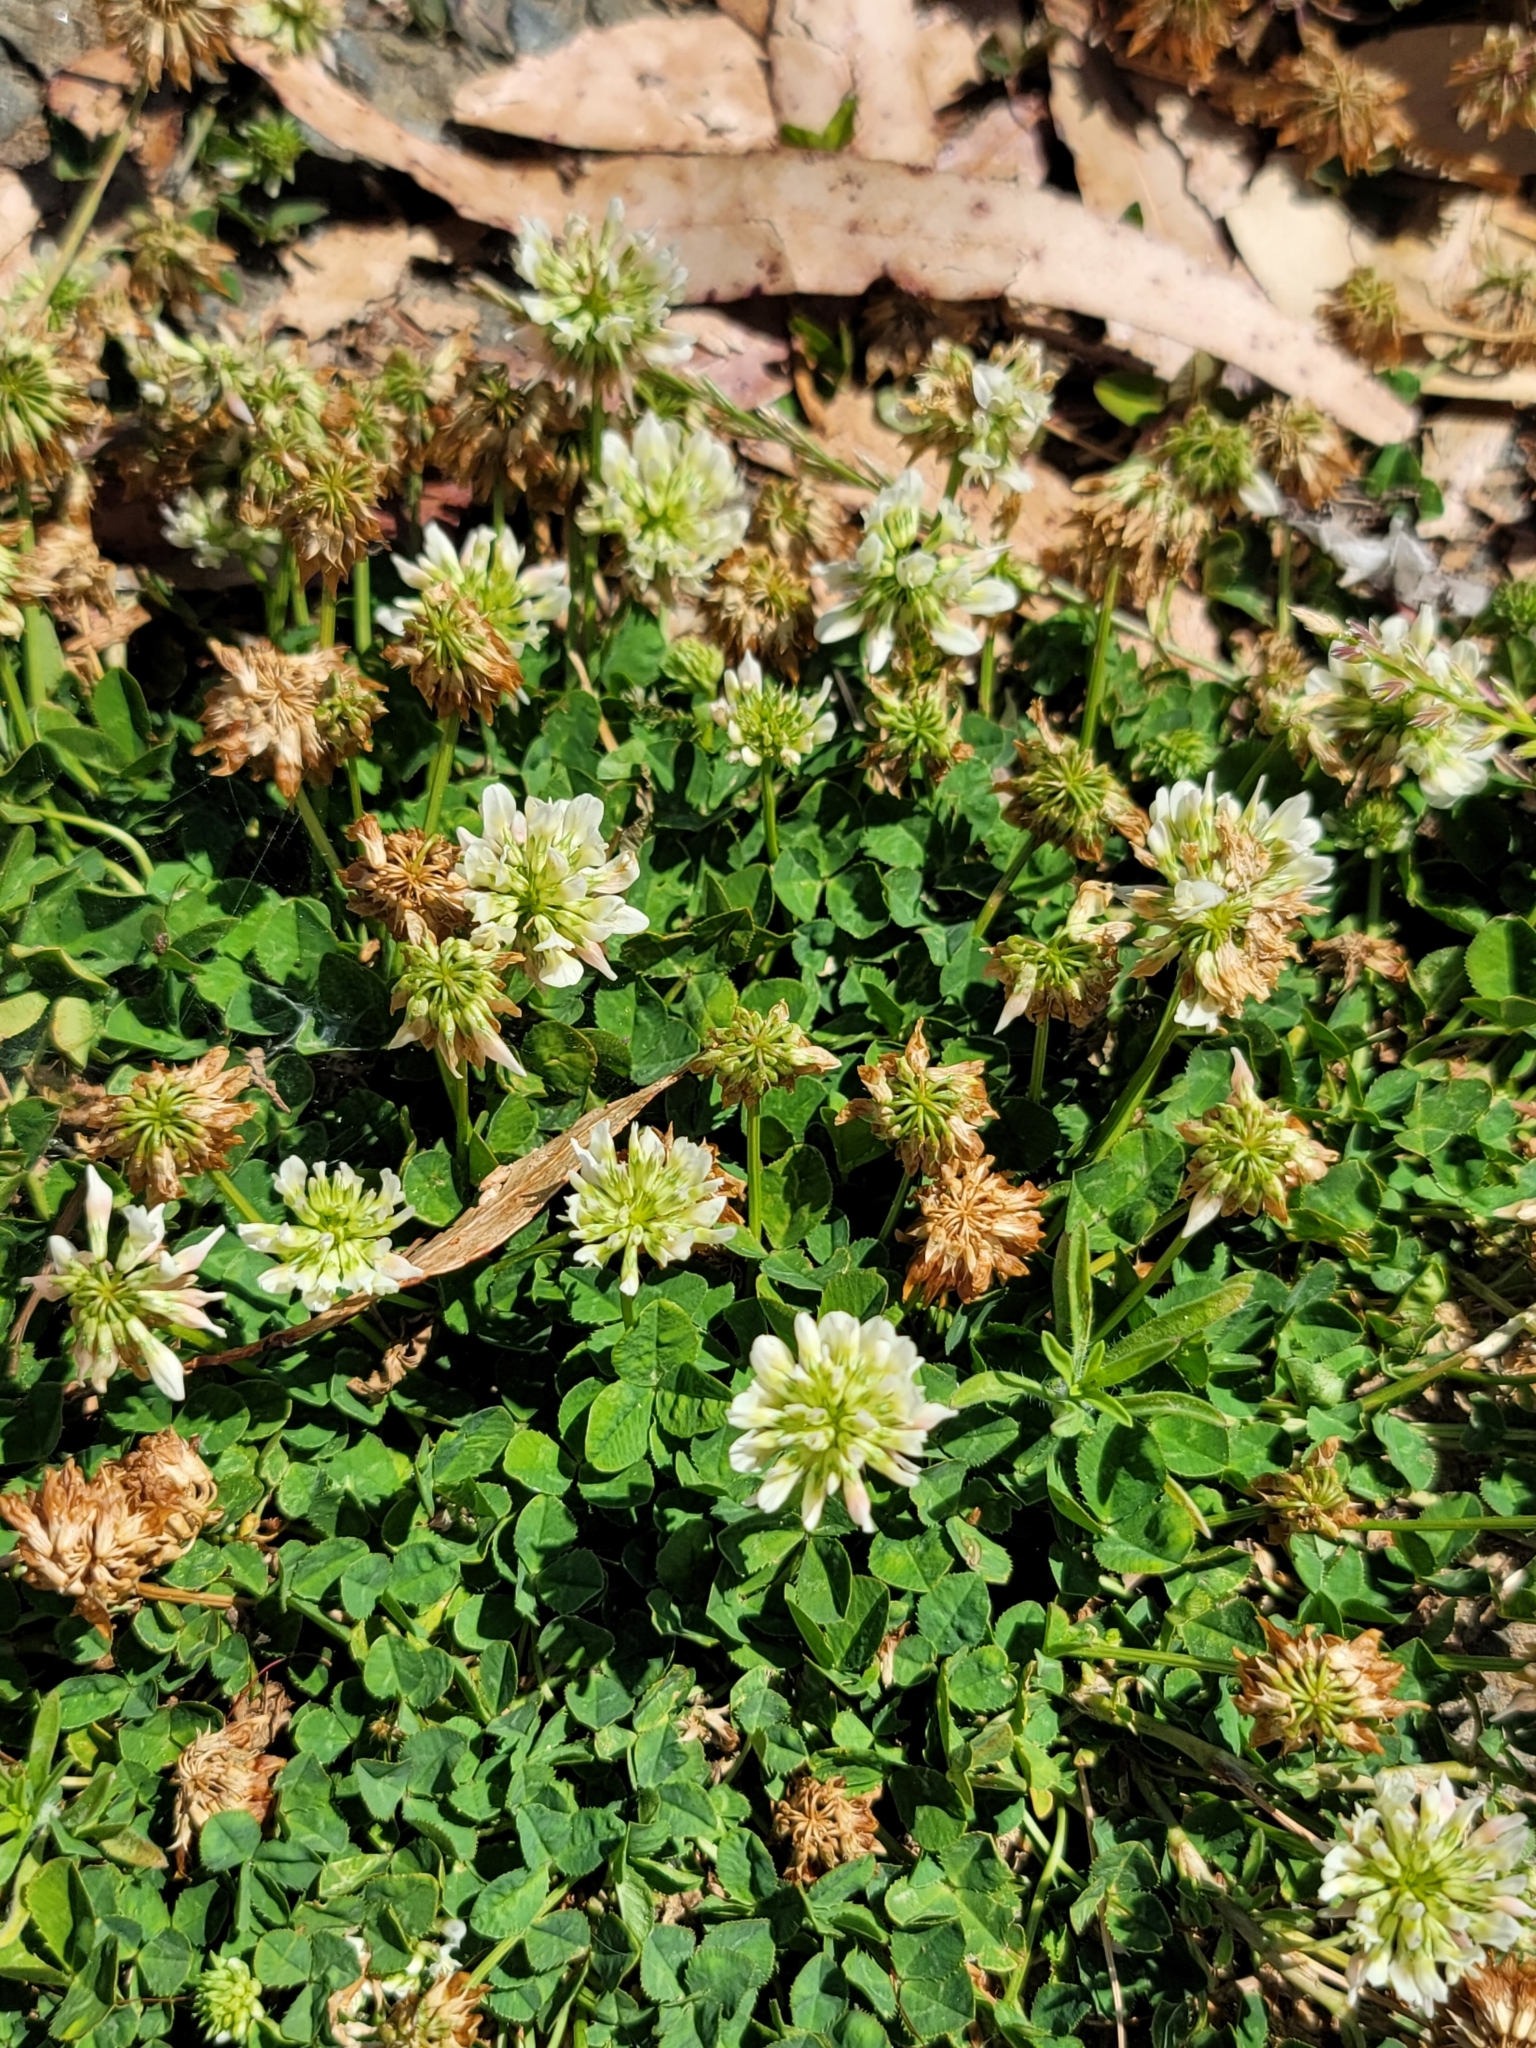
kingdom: Plantae
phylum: Tracheophyta
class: Magnoliopsida
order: Fabales
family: Fabaceae
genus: Trifolium
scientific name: Trifolium repens
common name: White clover
